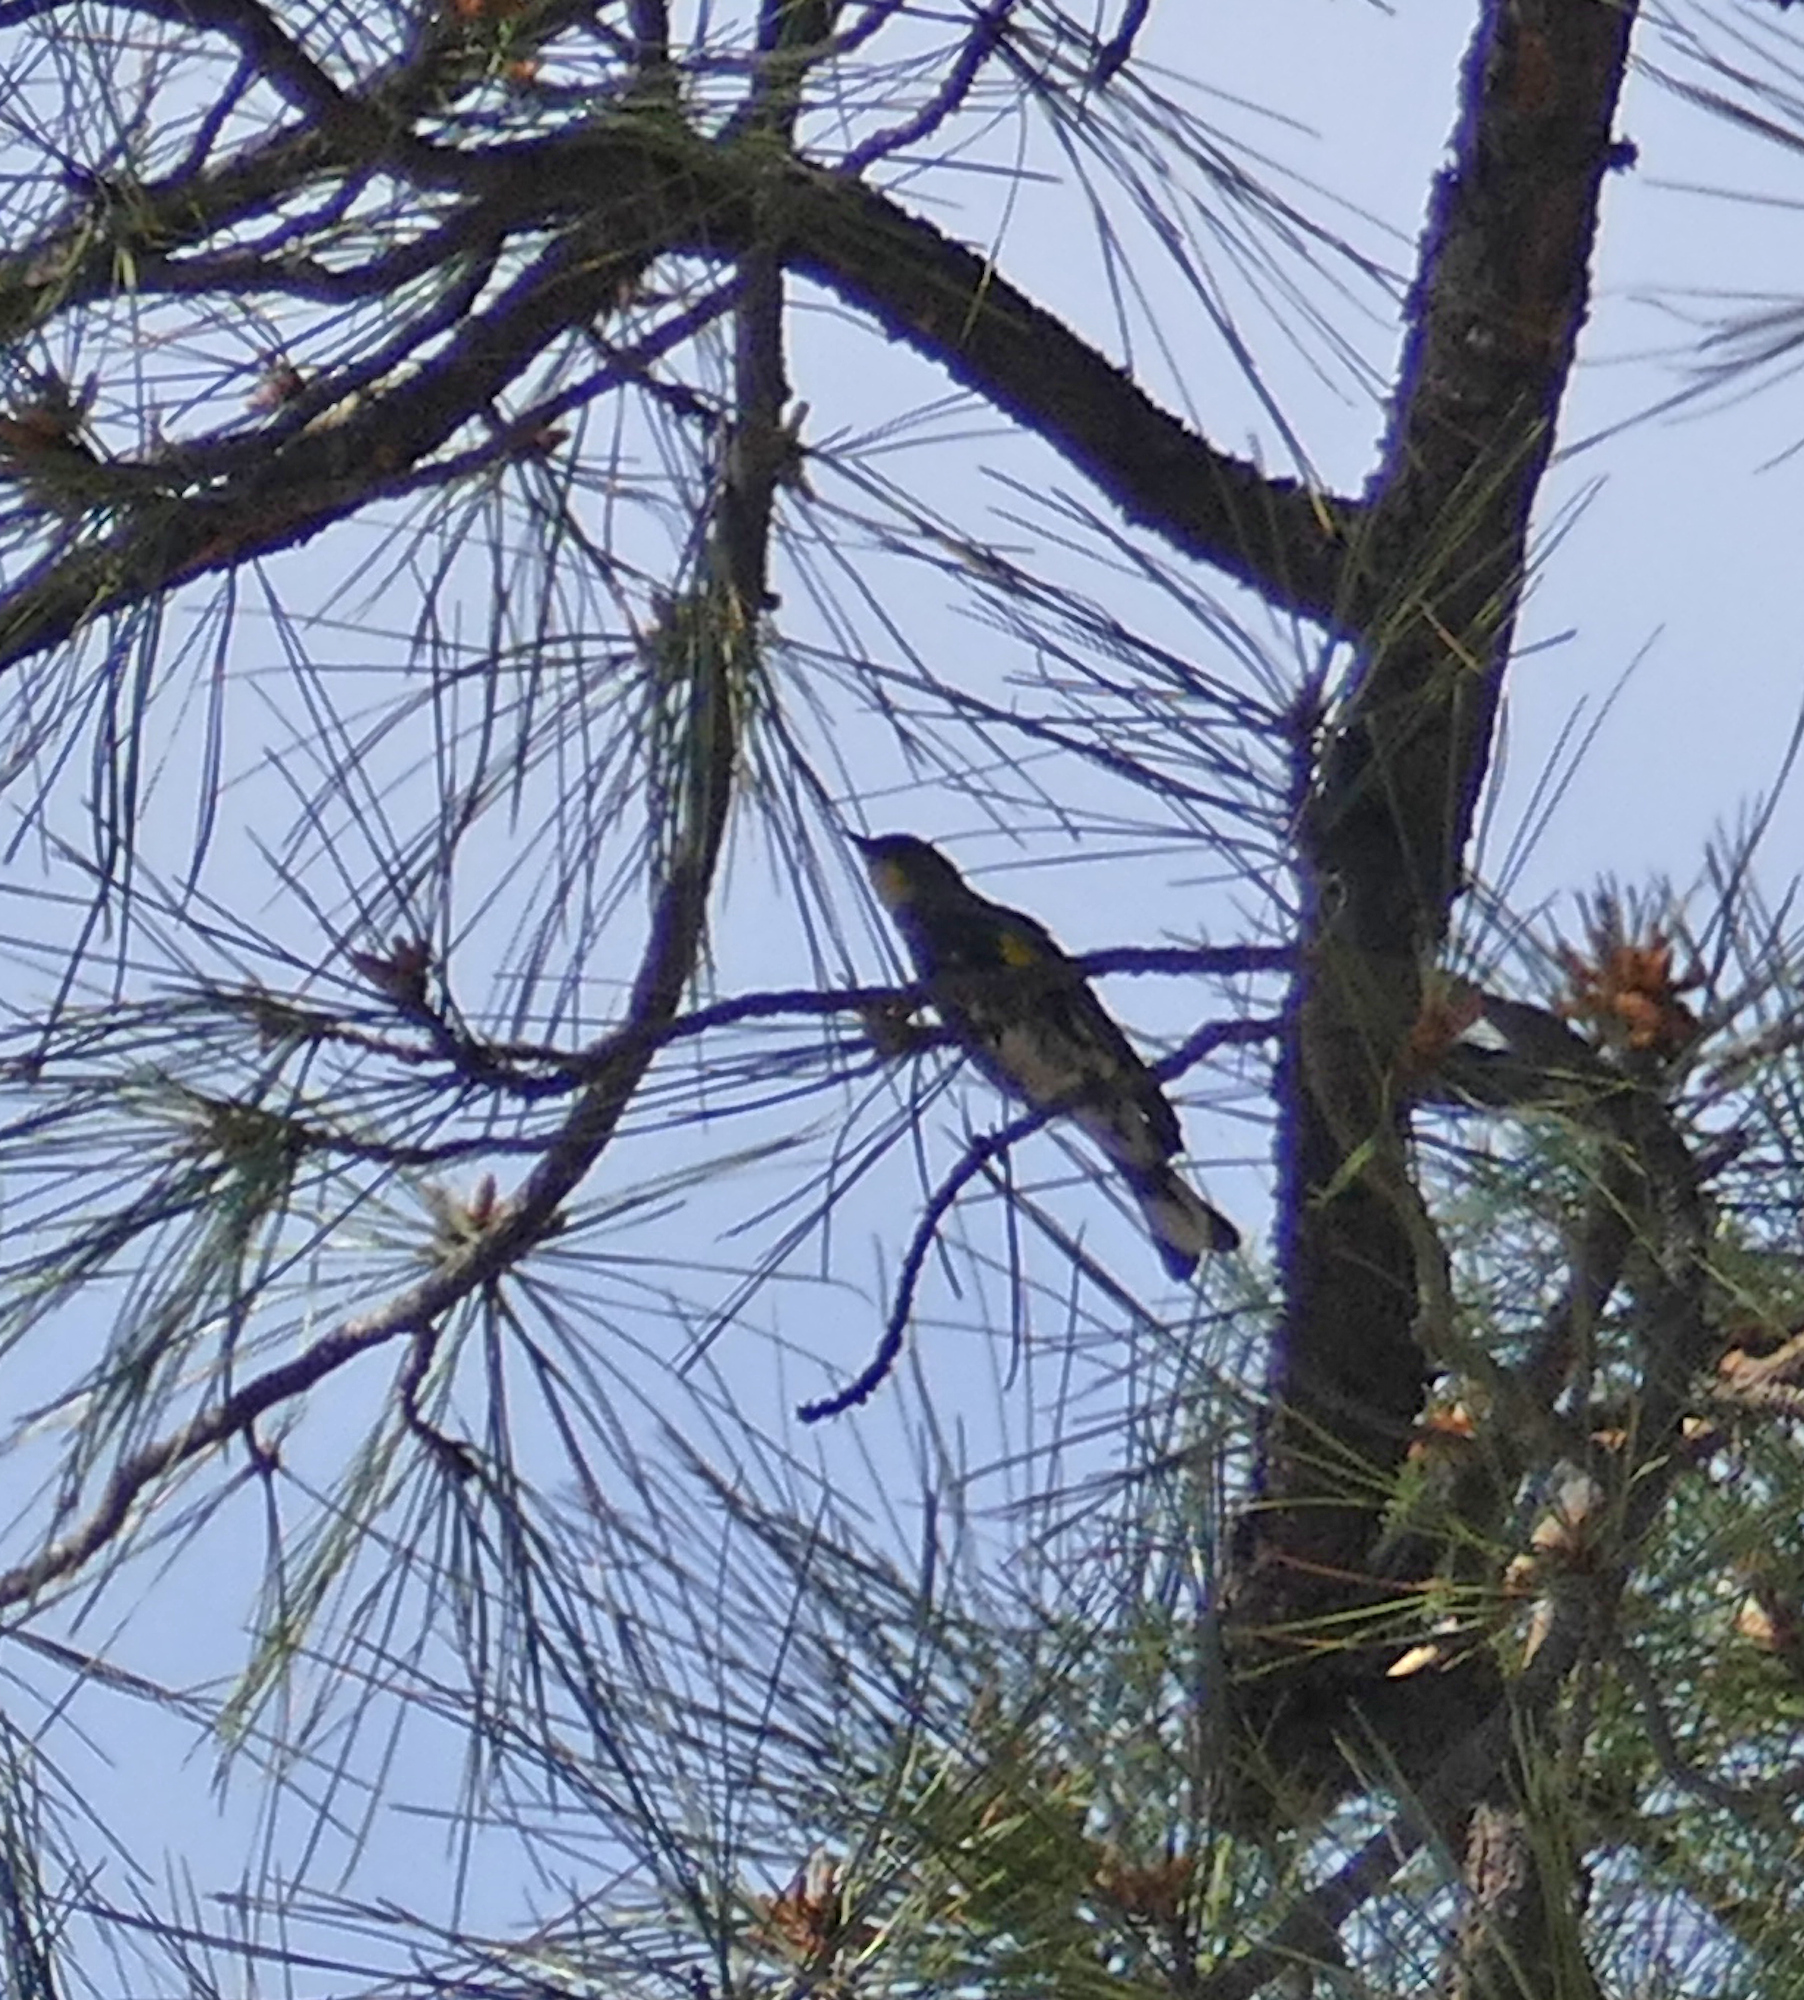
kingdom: Animalia
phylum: Chordata
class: Aves
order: Passeriformes
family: Parulidae
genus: Setophaga
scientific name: Setophaga coronata
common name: Myrtle warbler
